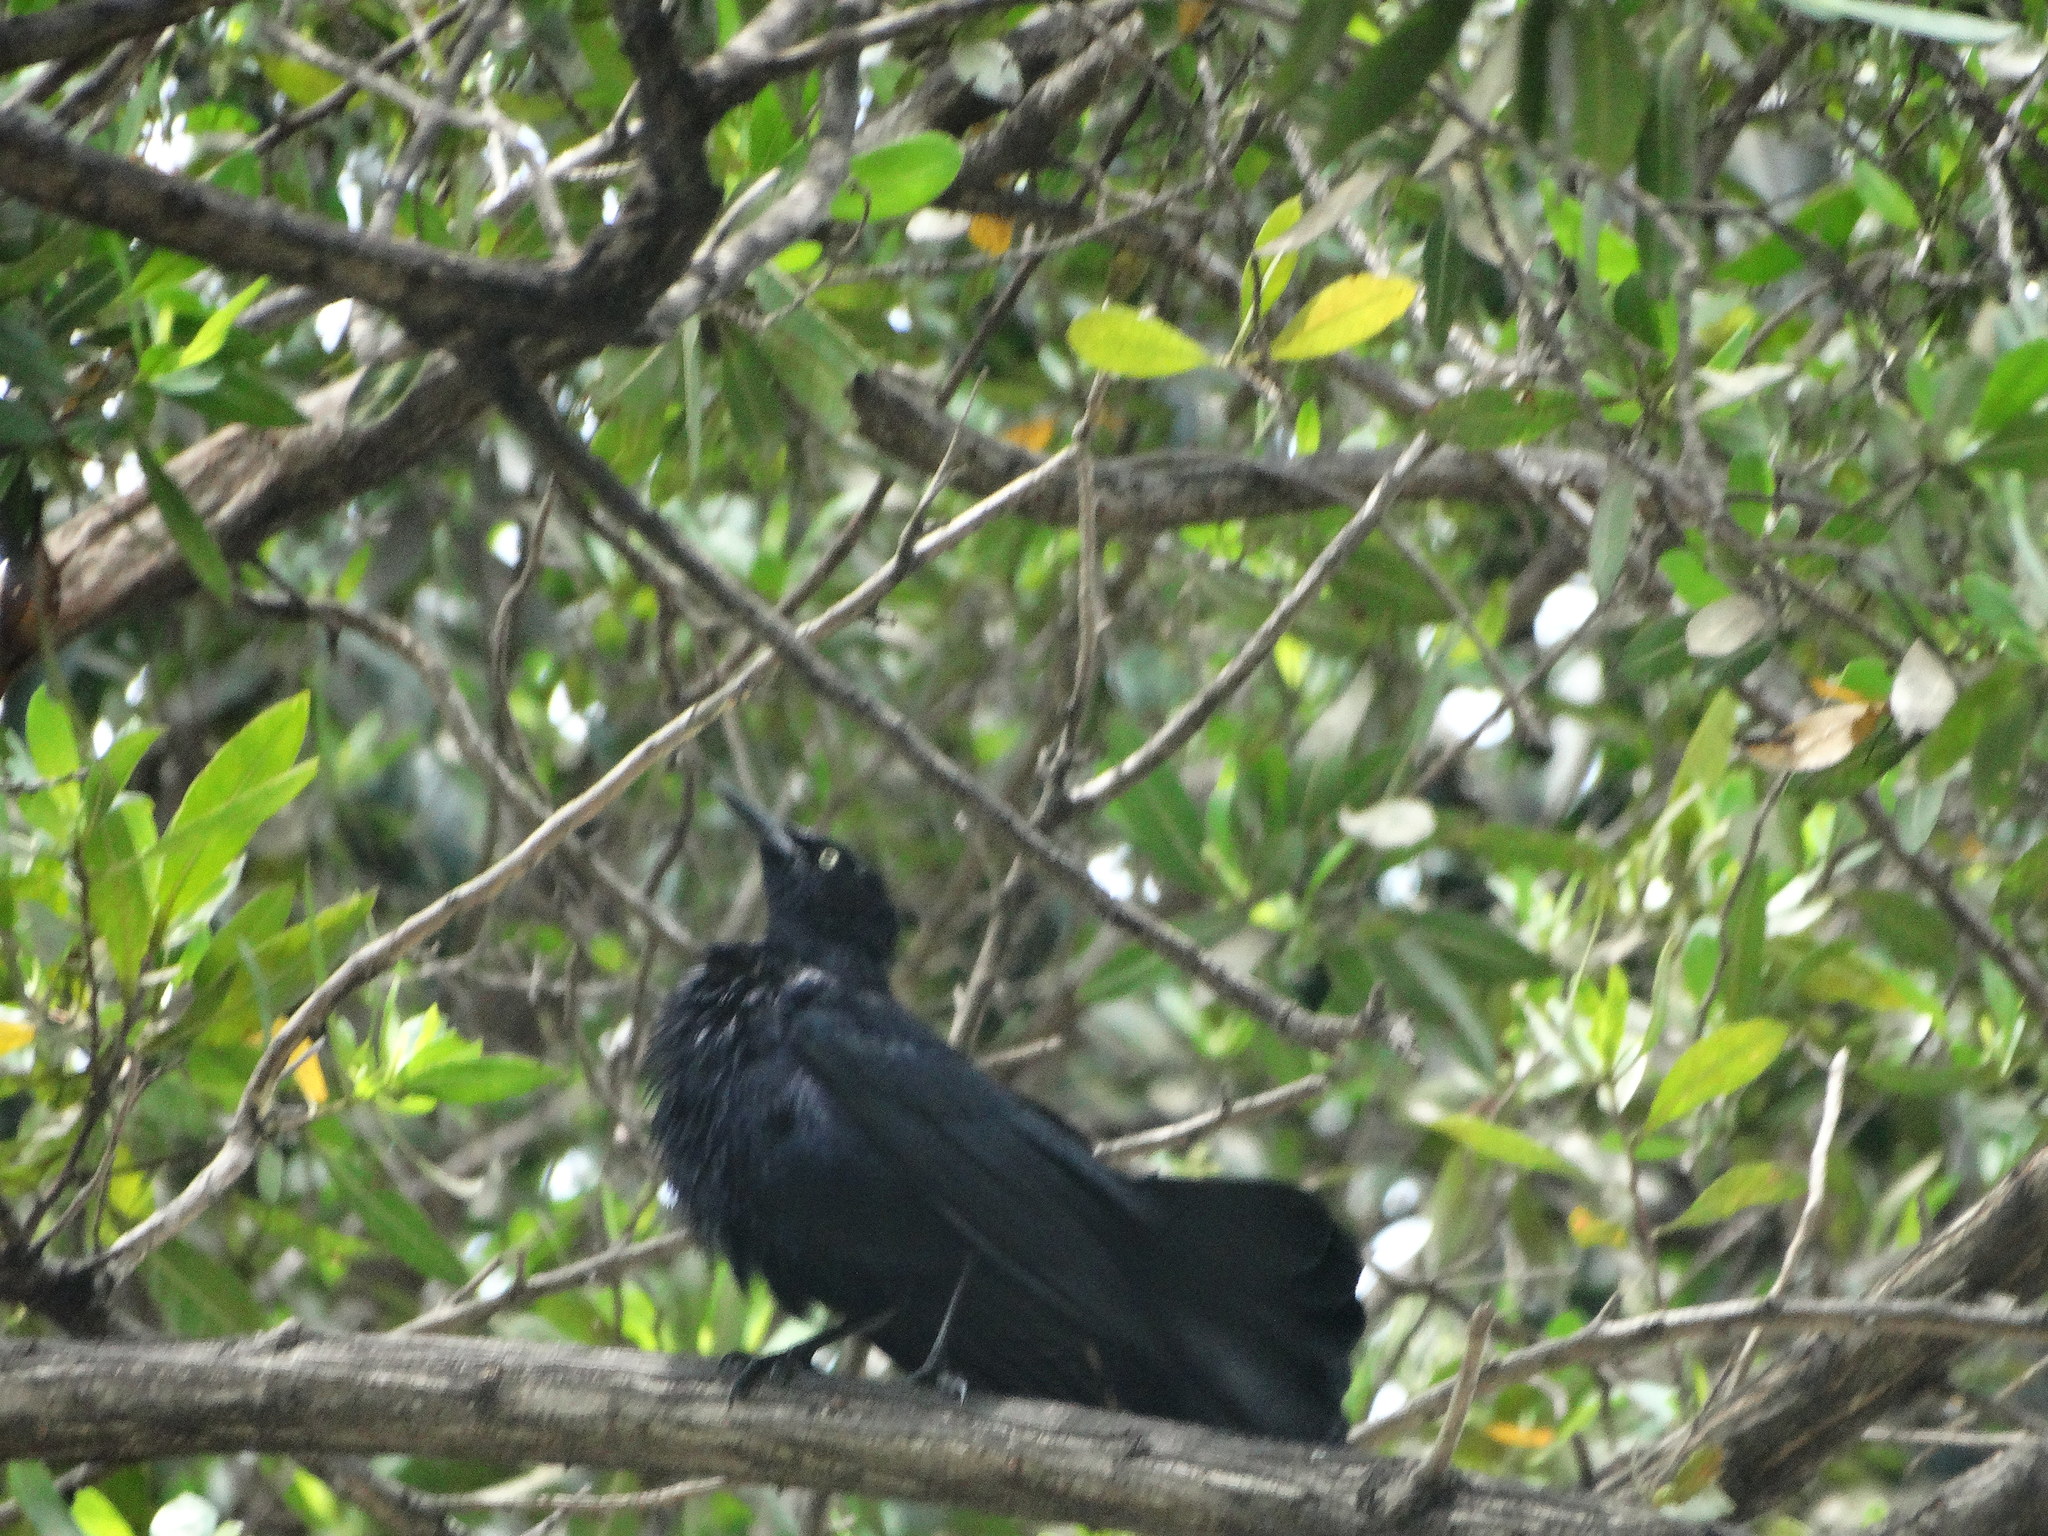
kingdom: Animalia
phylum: Chordata
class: Aves
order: Passeriformes
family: Icteridae
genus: Quiscalus
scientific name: Quiscalus niger
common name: Greater antillean grackle
